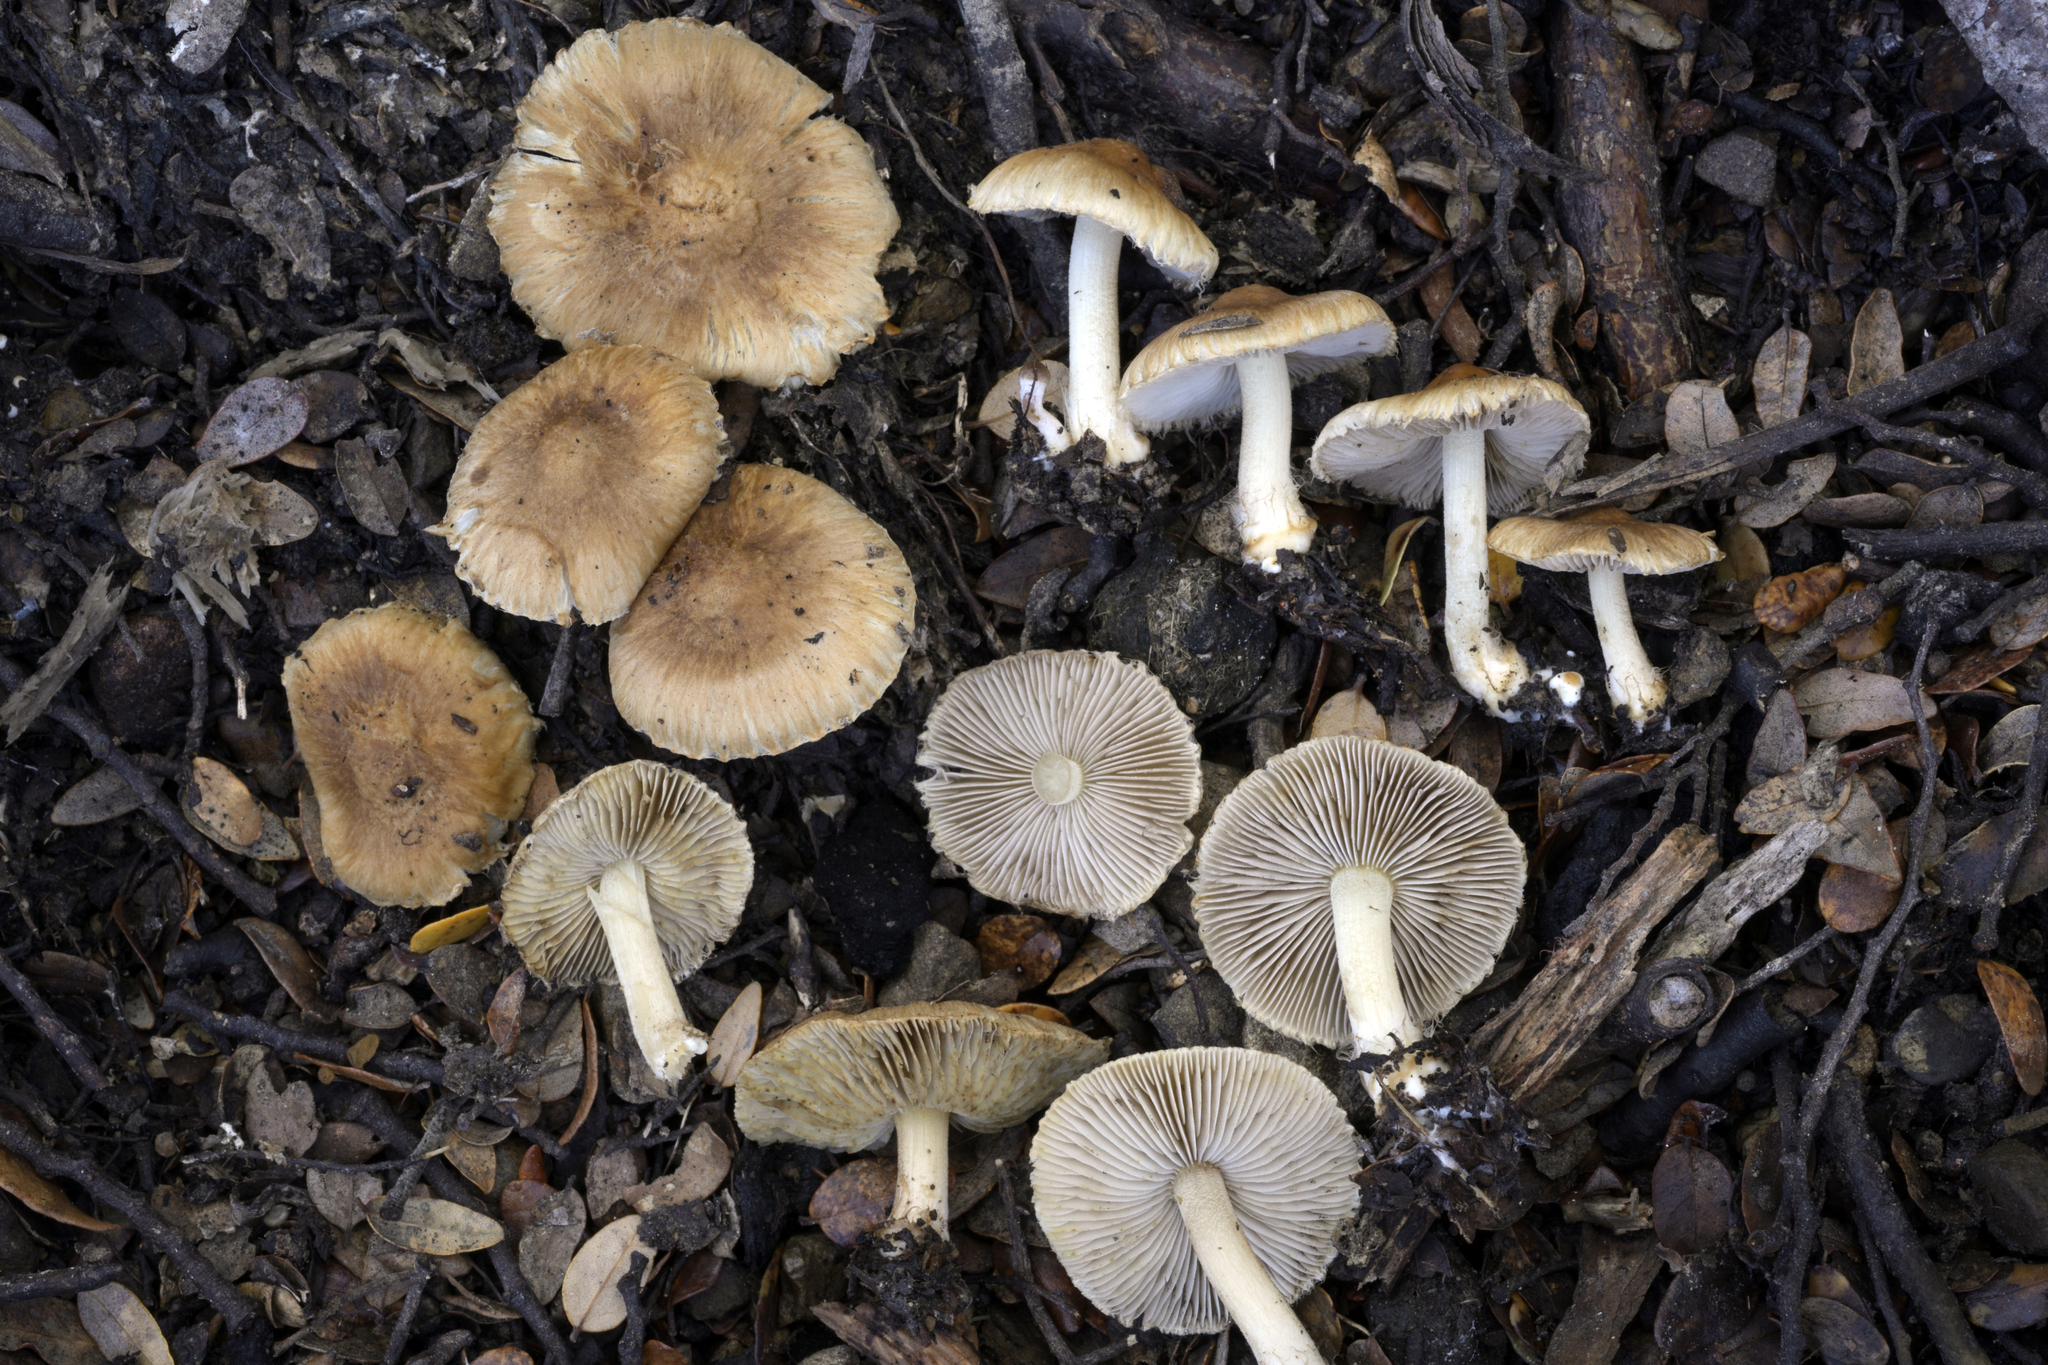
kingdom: Fungi
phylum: Basidiomycota
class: Agaricomycetes
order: Agaricales
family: Inocybaceae
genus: Inocybe
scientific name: Inocybe luteobulbosa
